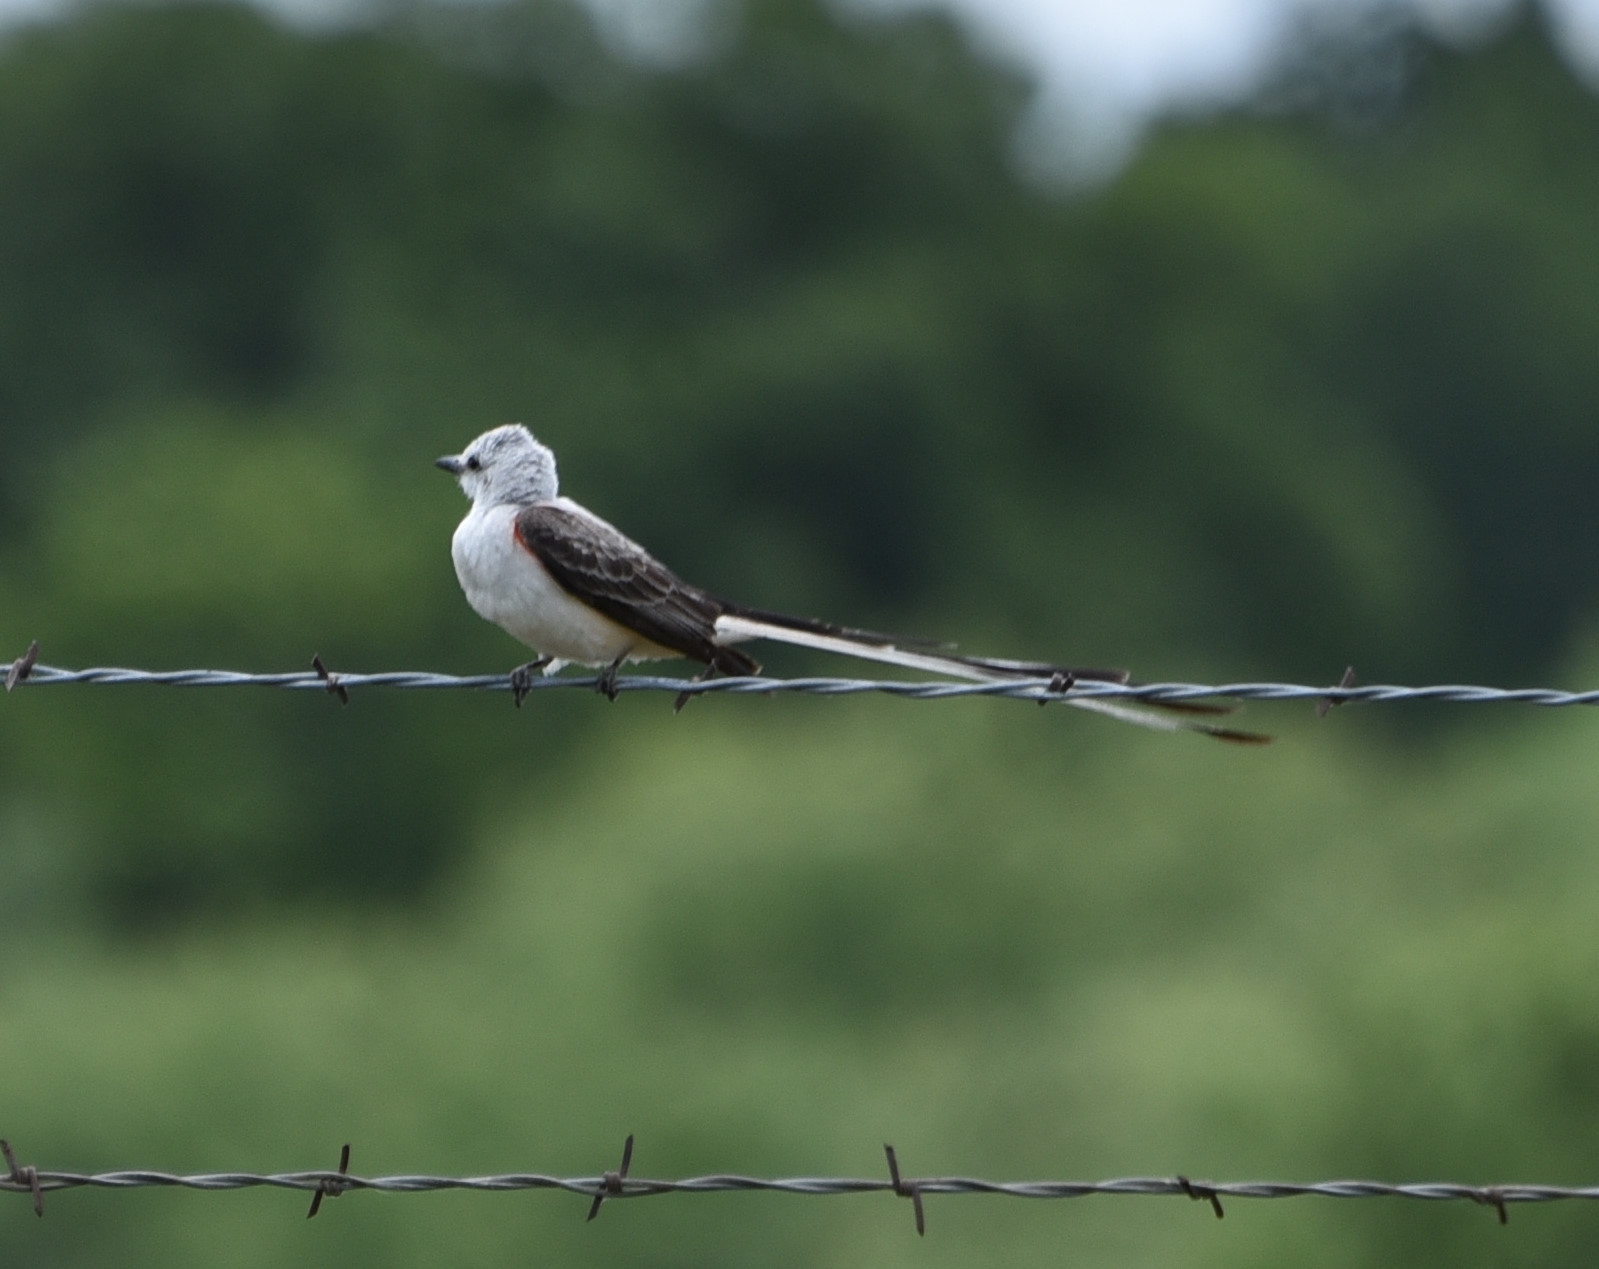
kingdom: Animalia
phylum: Chordata
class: Aves
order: Passeriformes
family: Tyrannidae
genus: Tyrannus
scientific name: Tyrannus forficatus
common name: Scissor-tailed flycatcher
